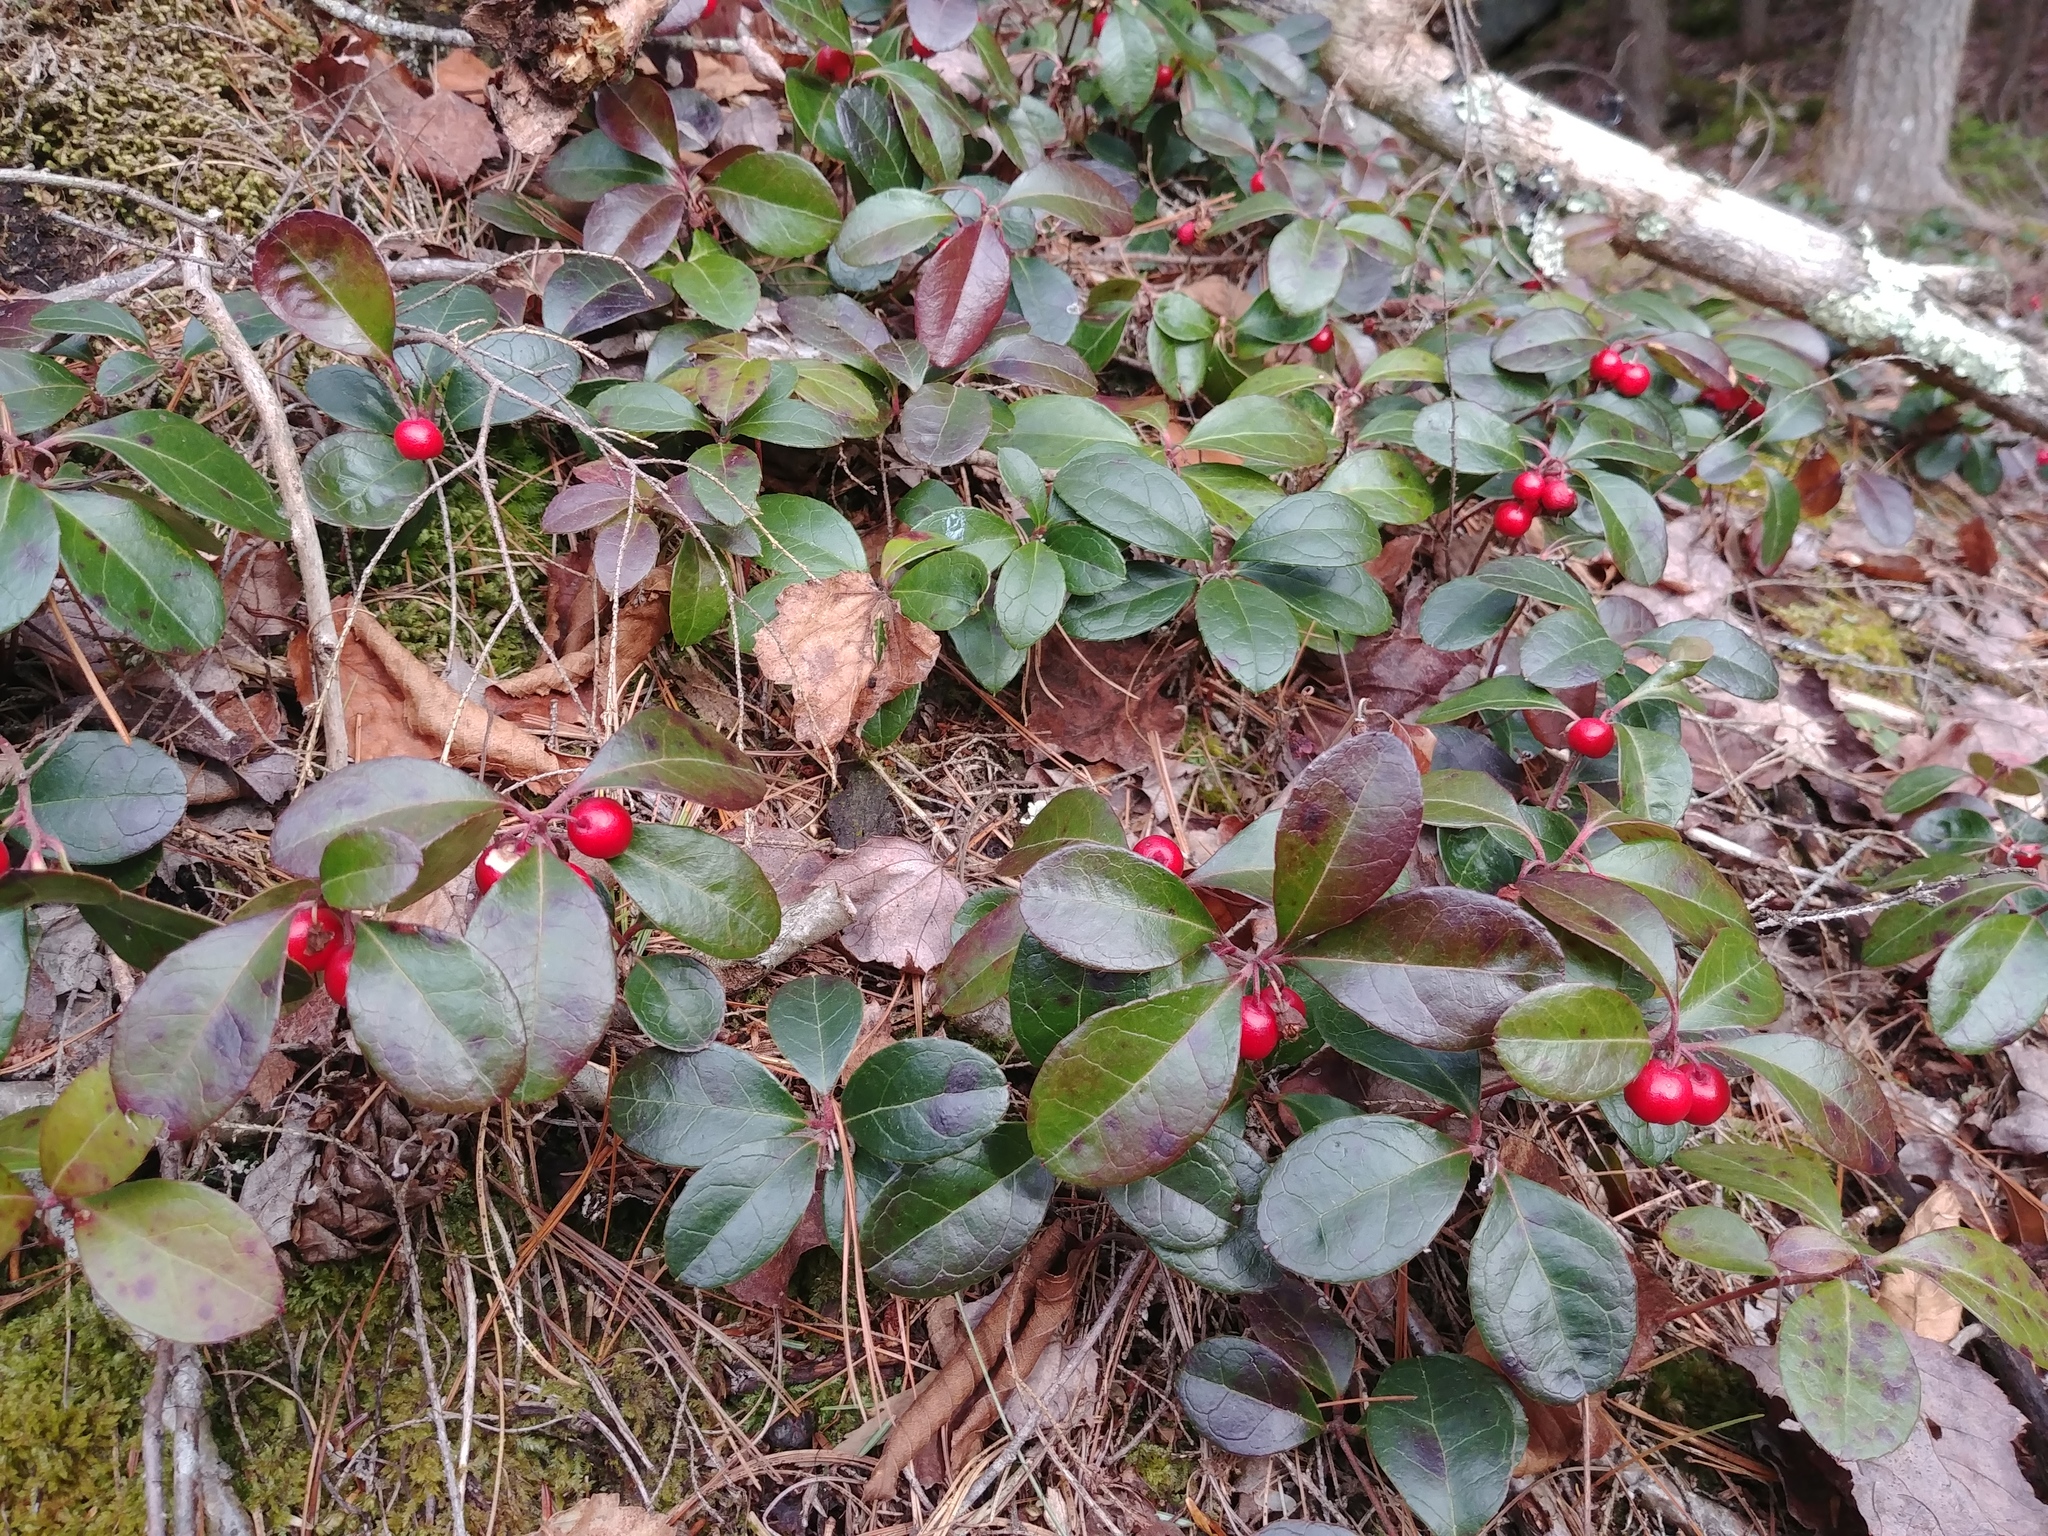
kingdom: Plantae
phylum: Tracheophyta
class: Magnoliopsida
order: Ericales
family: Ericaceae
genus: Gaultheria
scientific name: Gaultheria procumbens
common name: Checkerberry
